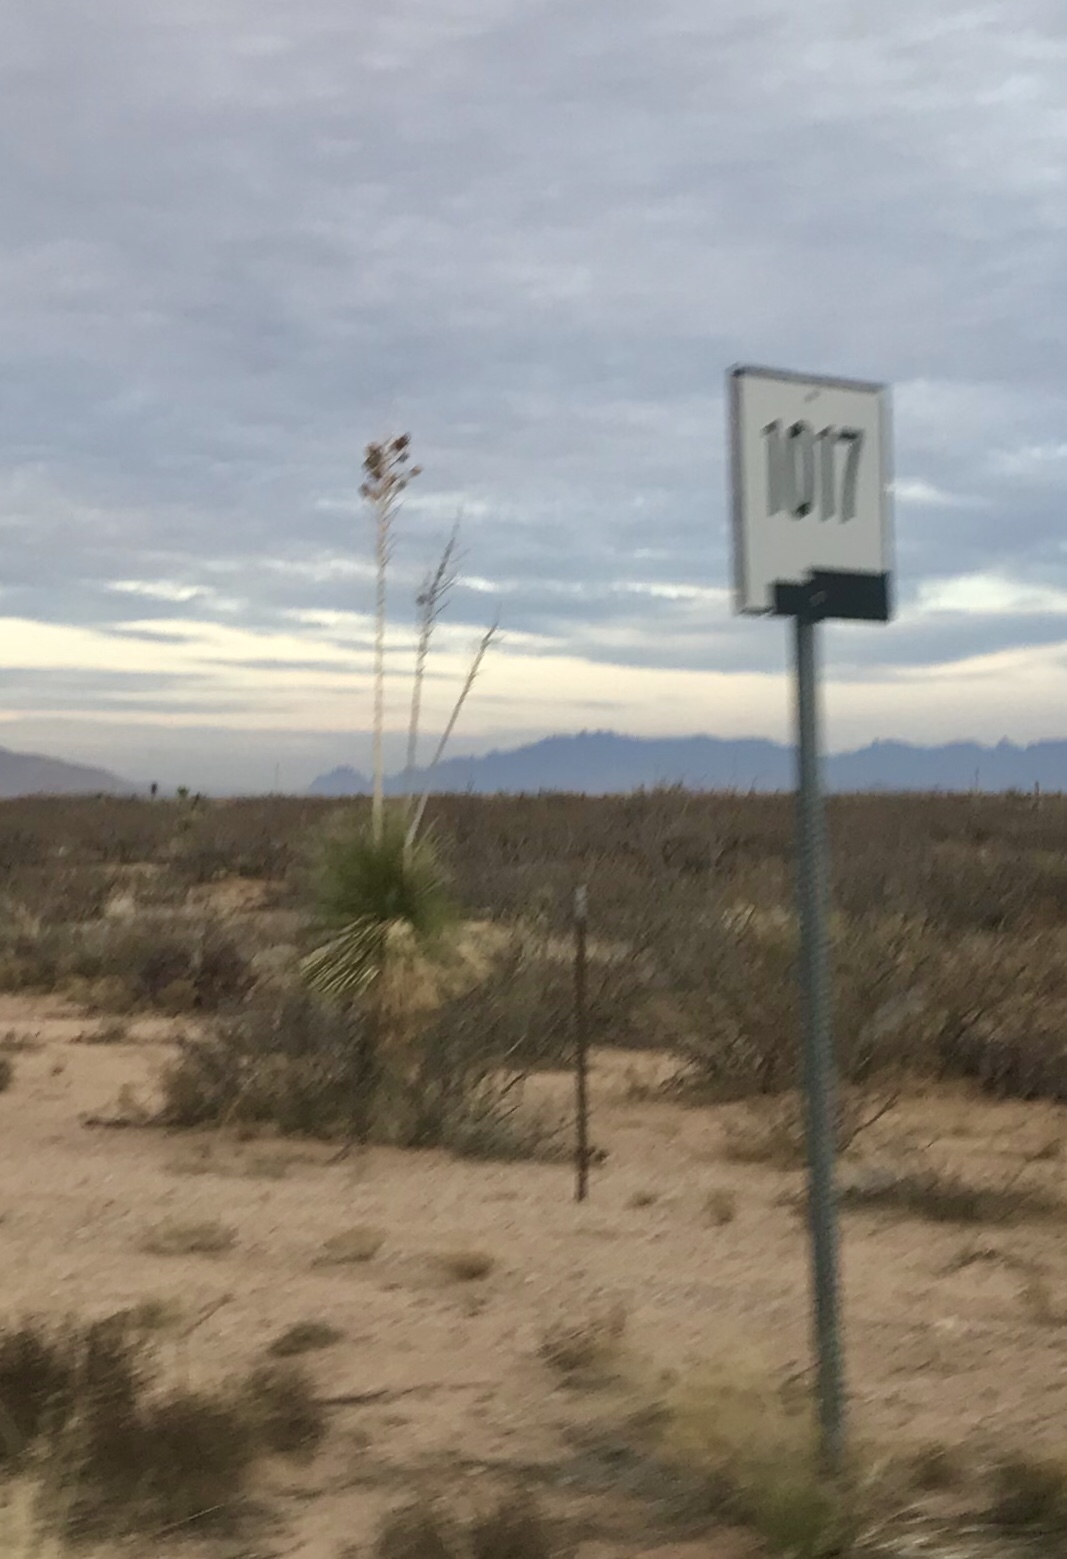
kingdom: Plantae
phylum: Tracheophyta
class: Liliopsida
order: Asparagales
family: Asparagaceae
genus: Yucca
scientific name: Yucca elata
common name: Palmella
